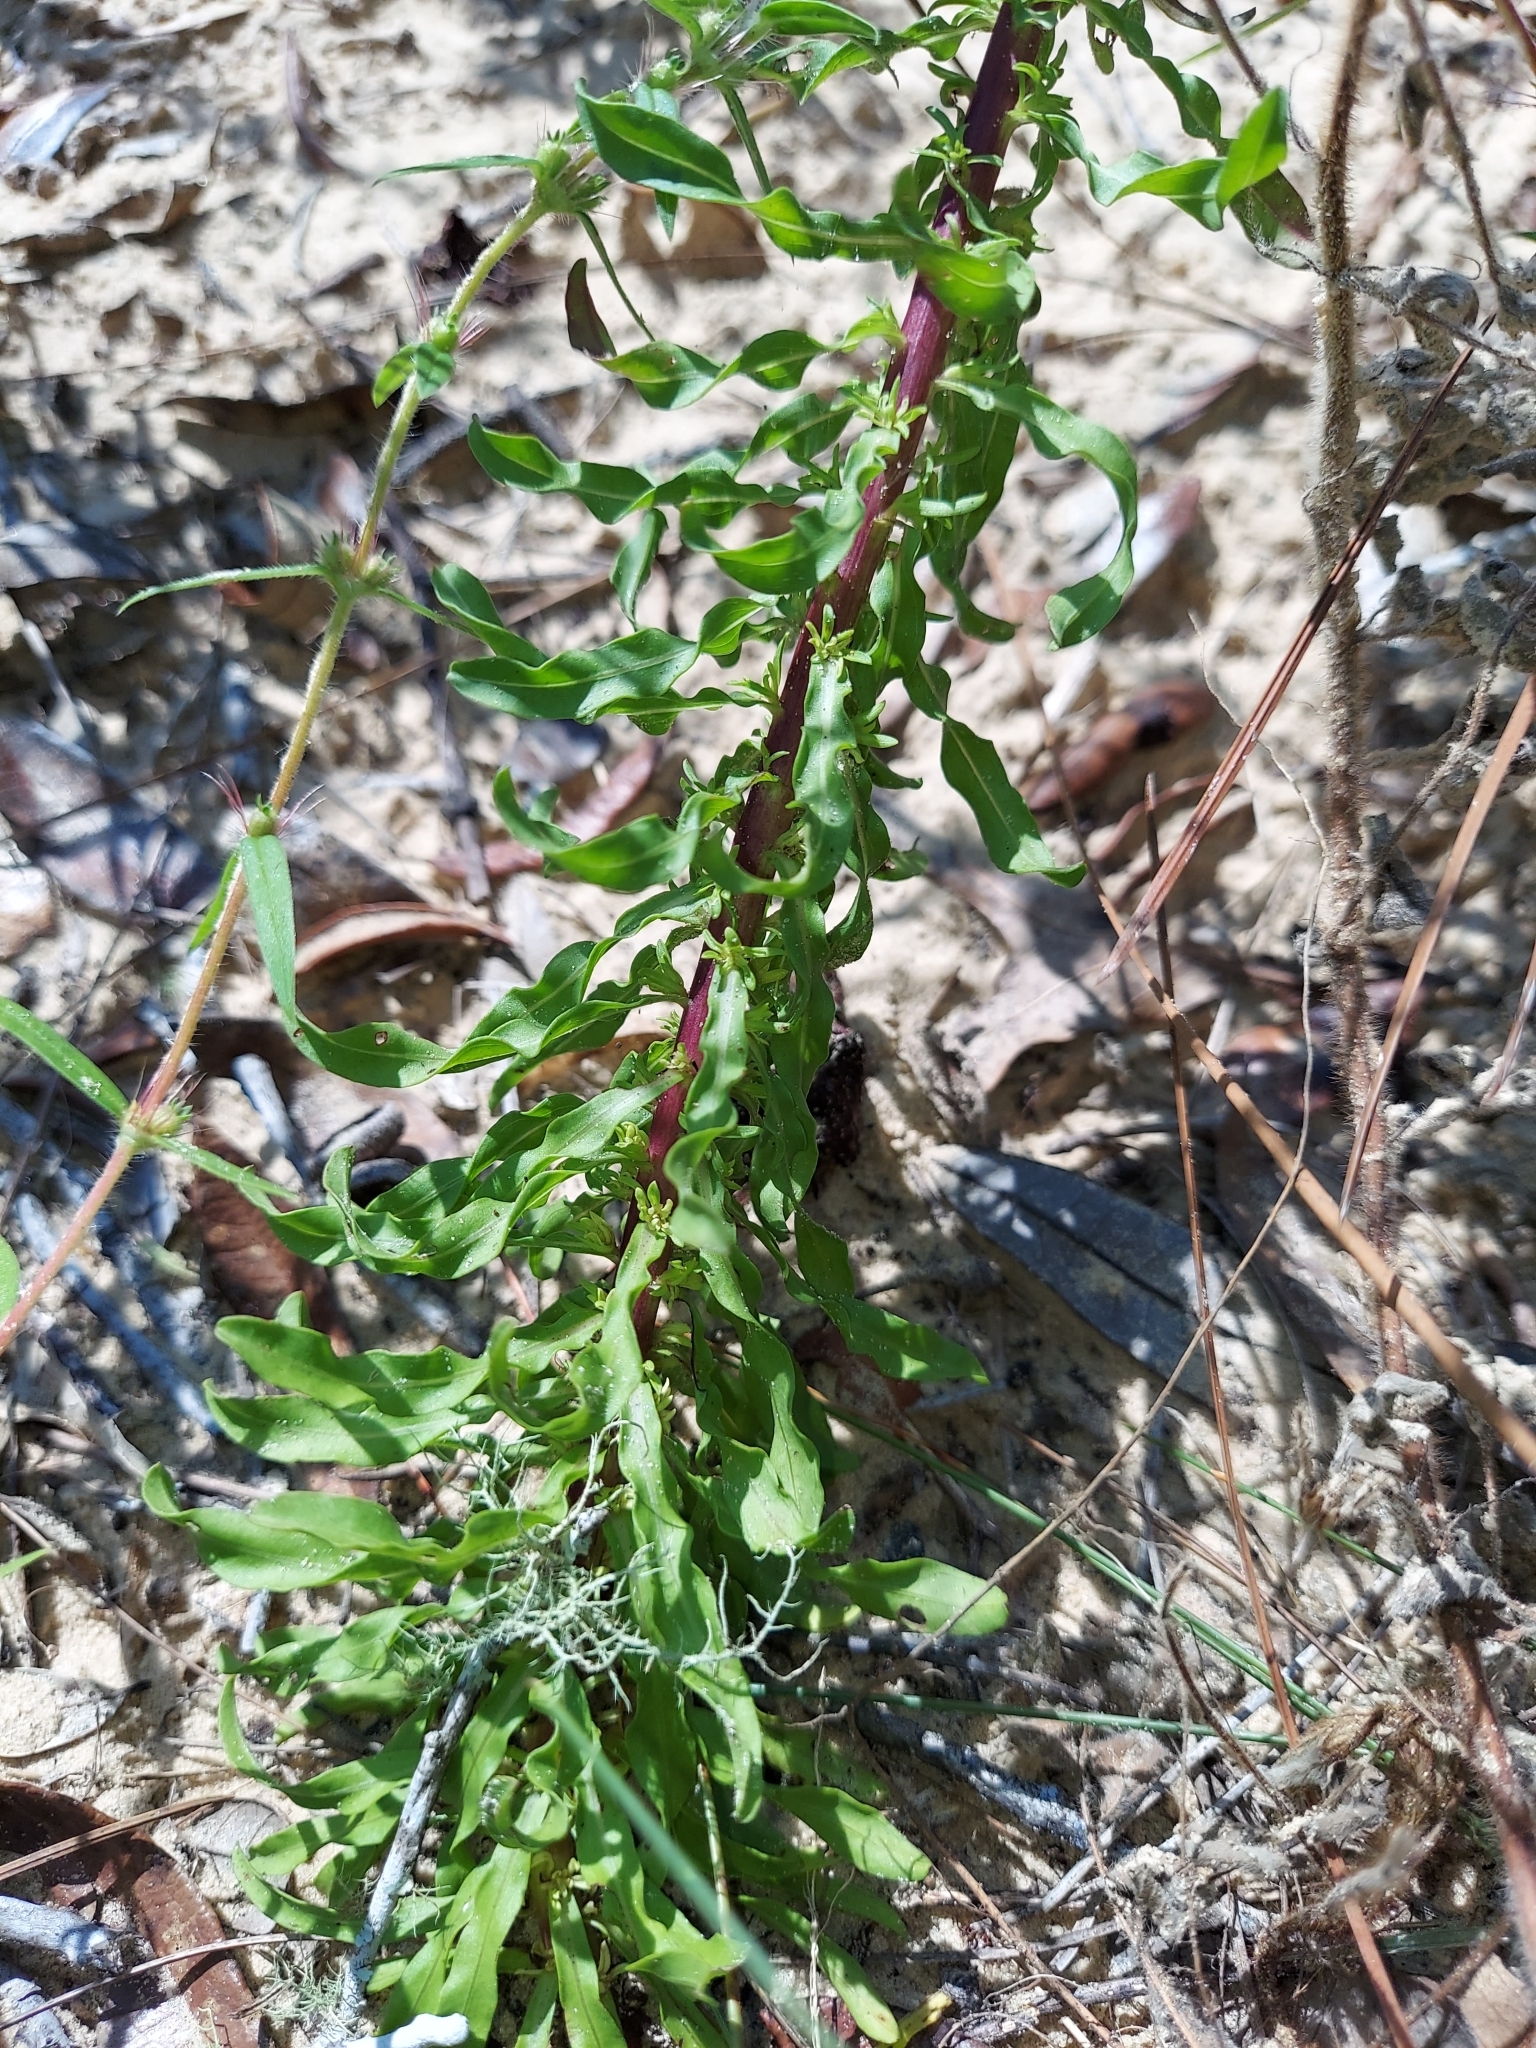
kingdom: Plantae
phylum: Tracheophyta
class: Magnoliopsida
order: Asterales
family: Asteraceae
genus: Chrysopsis
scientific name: Chrysopsis linearifolia
